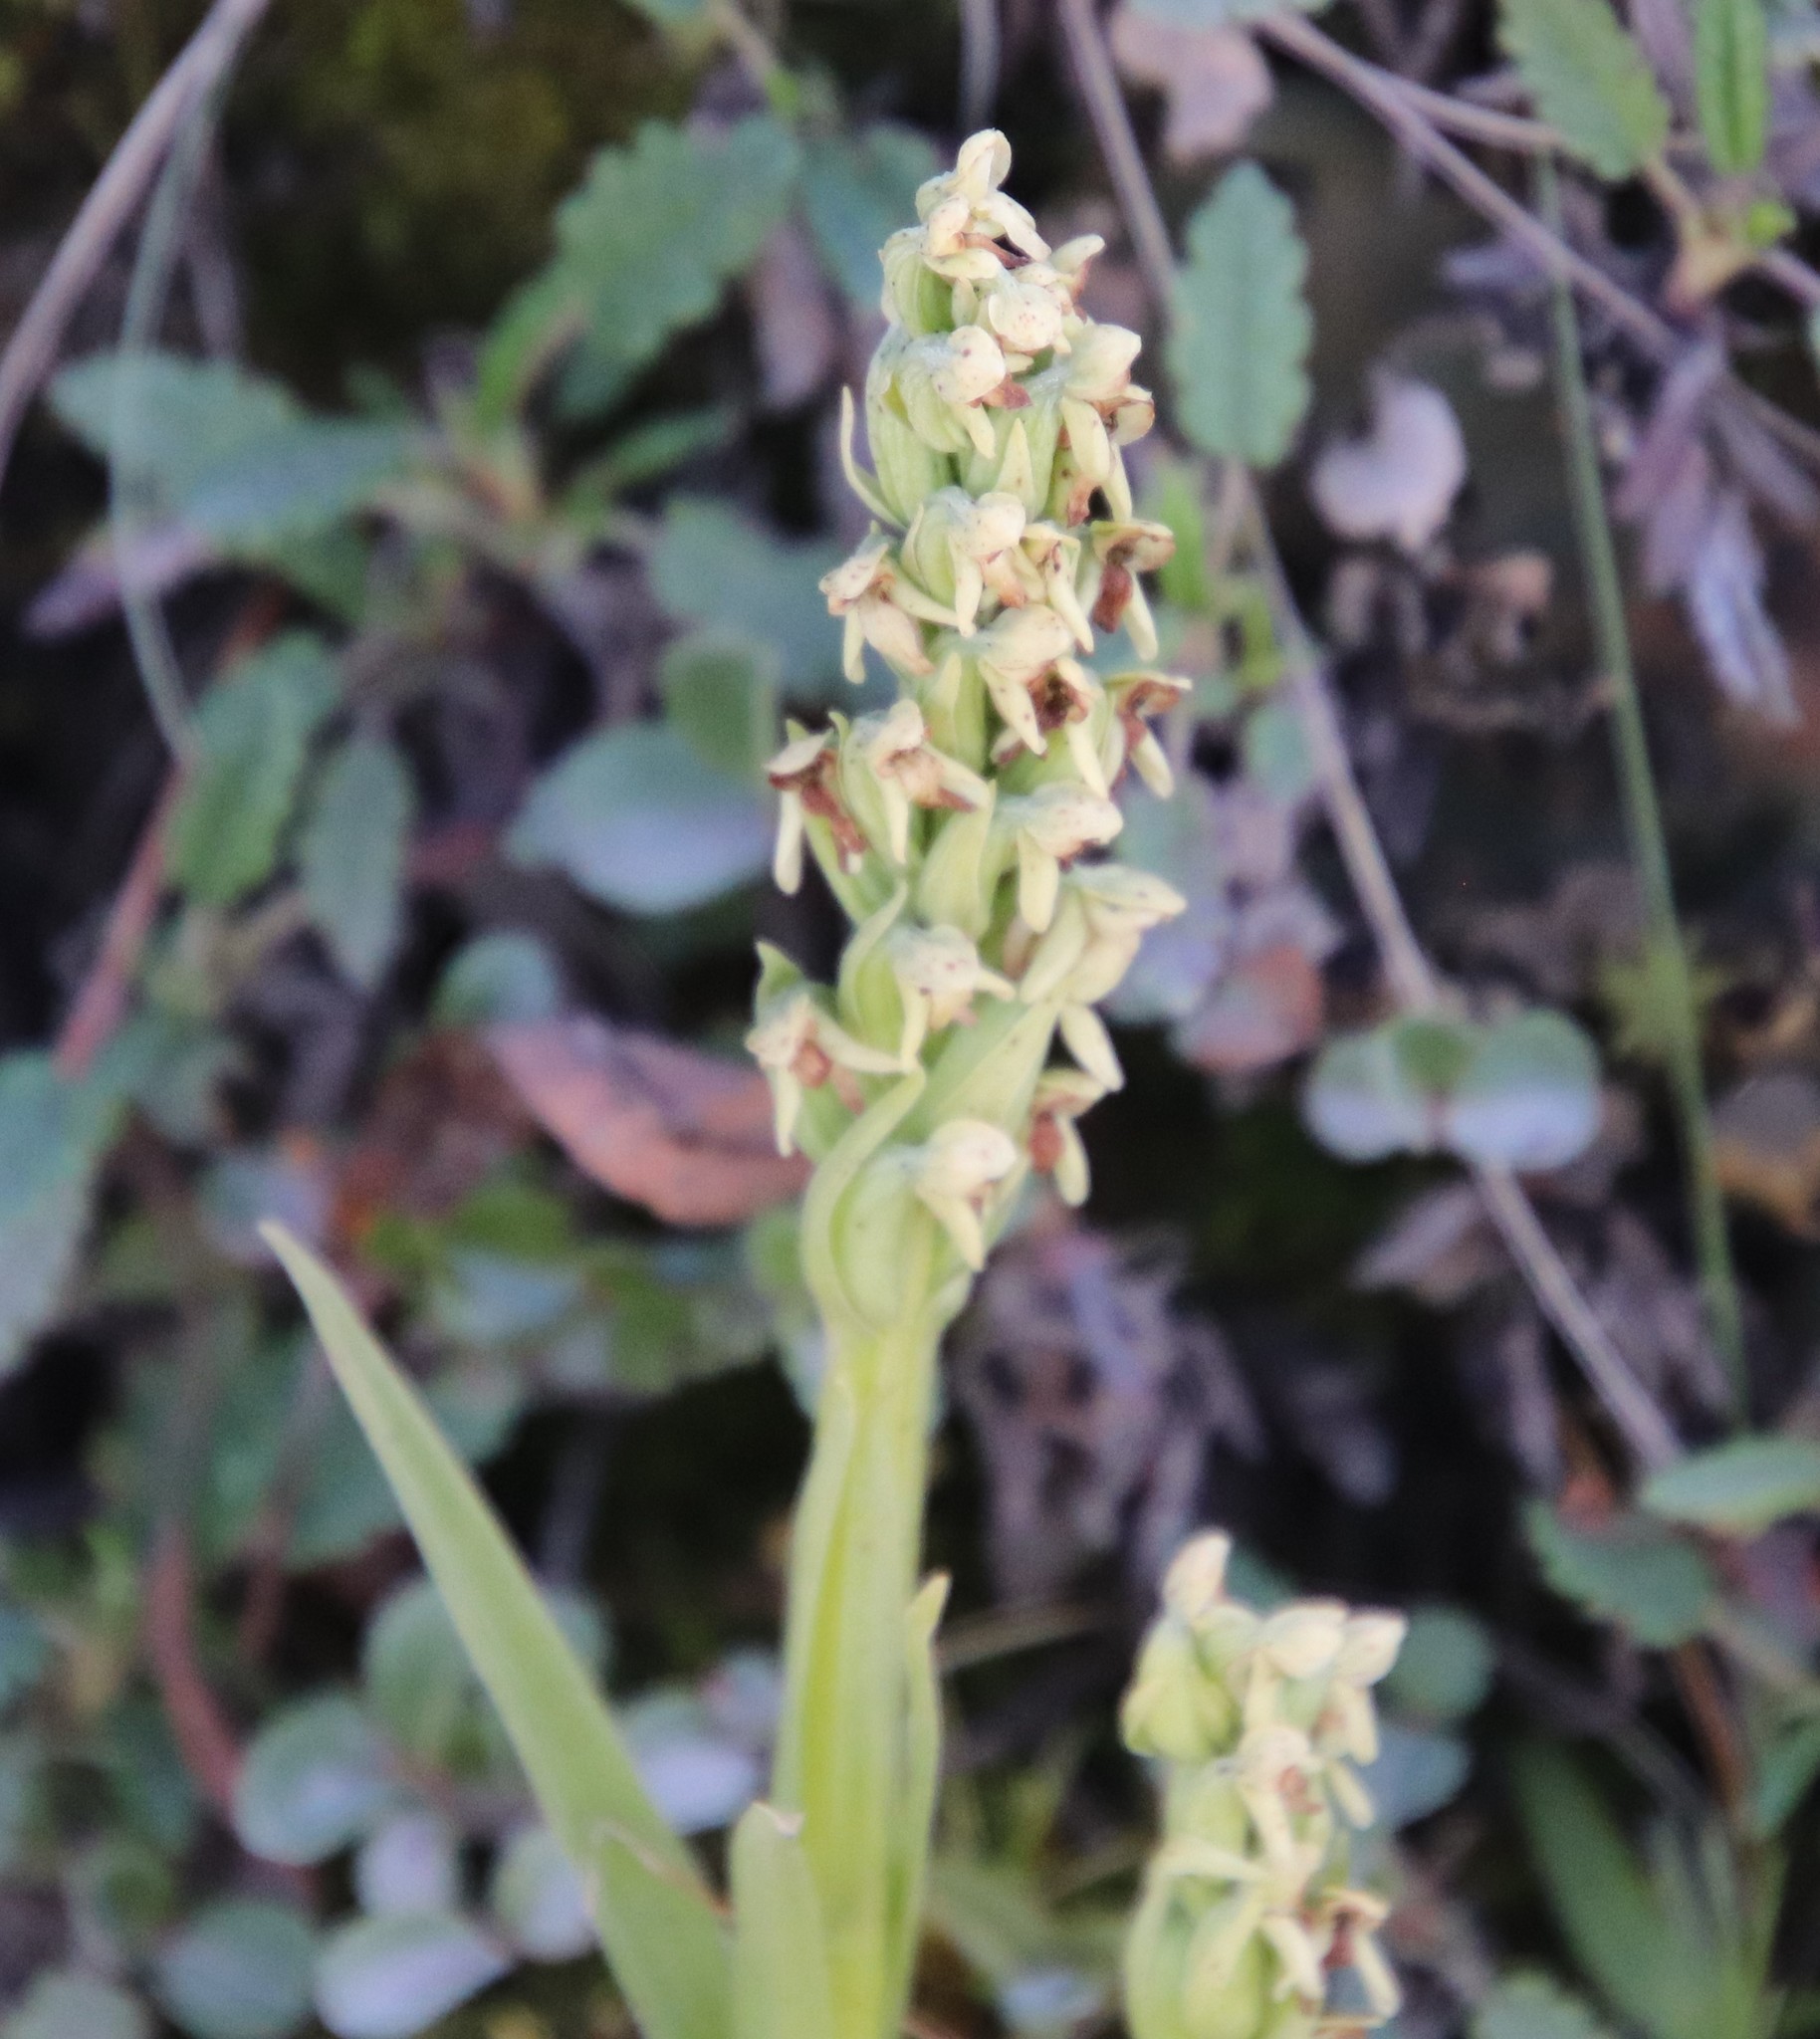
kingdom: Plantae
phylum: Tracheophyta
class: Liliopsida
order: Asparagales
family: Orchidaceae
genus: Platanthera
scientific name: Platanthera hyperborea
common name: Northern green orchid
